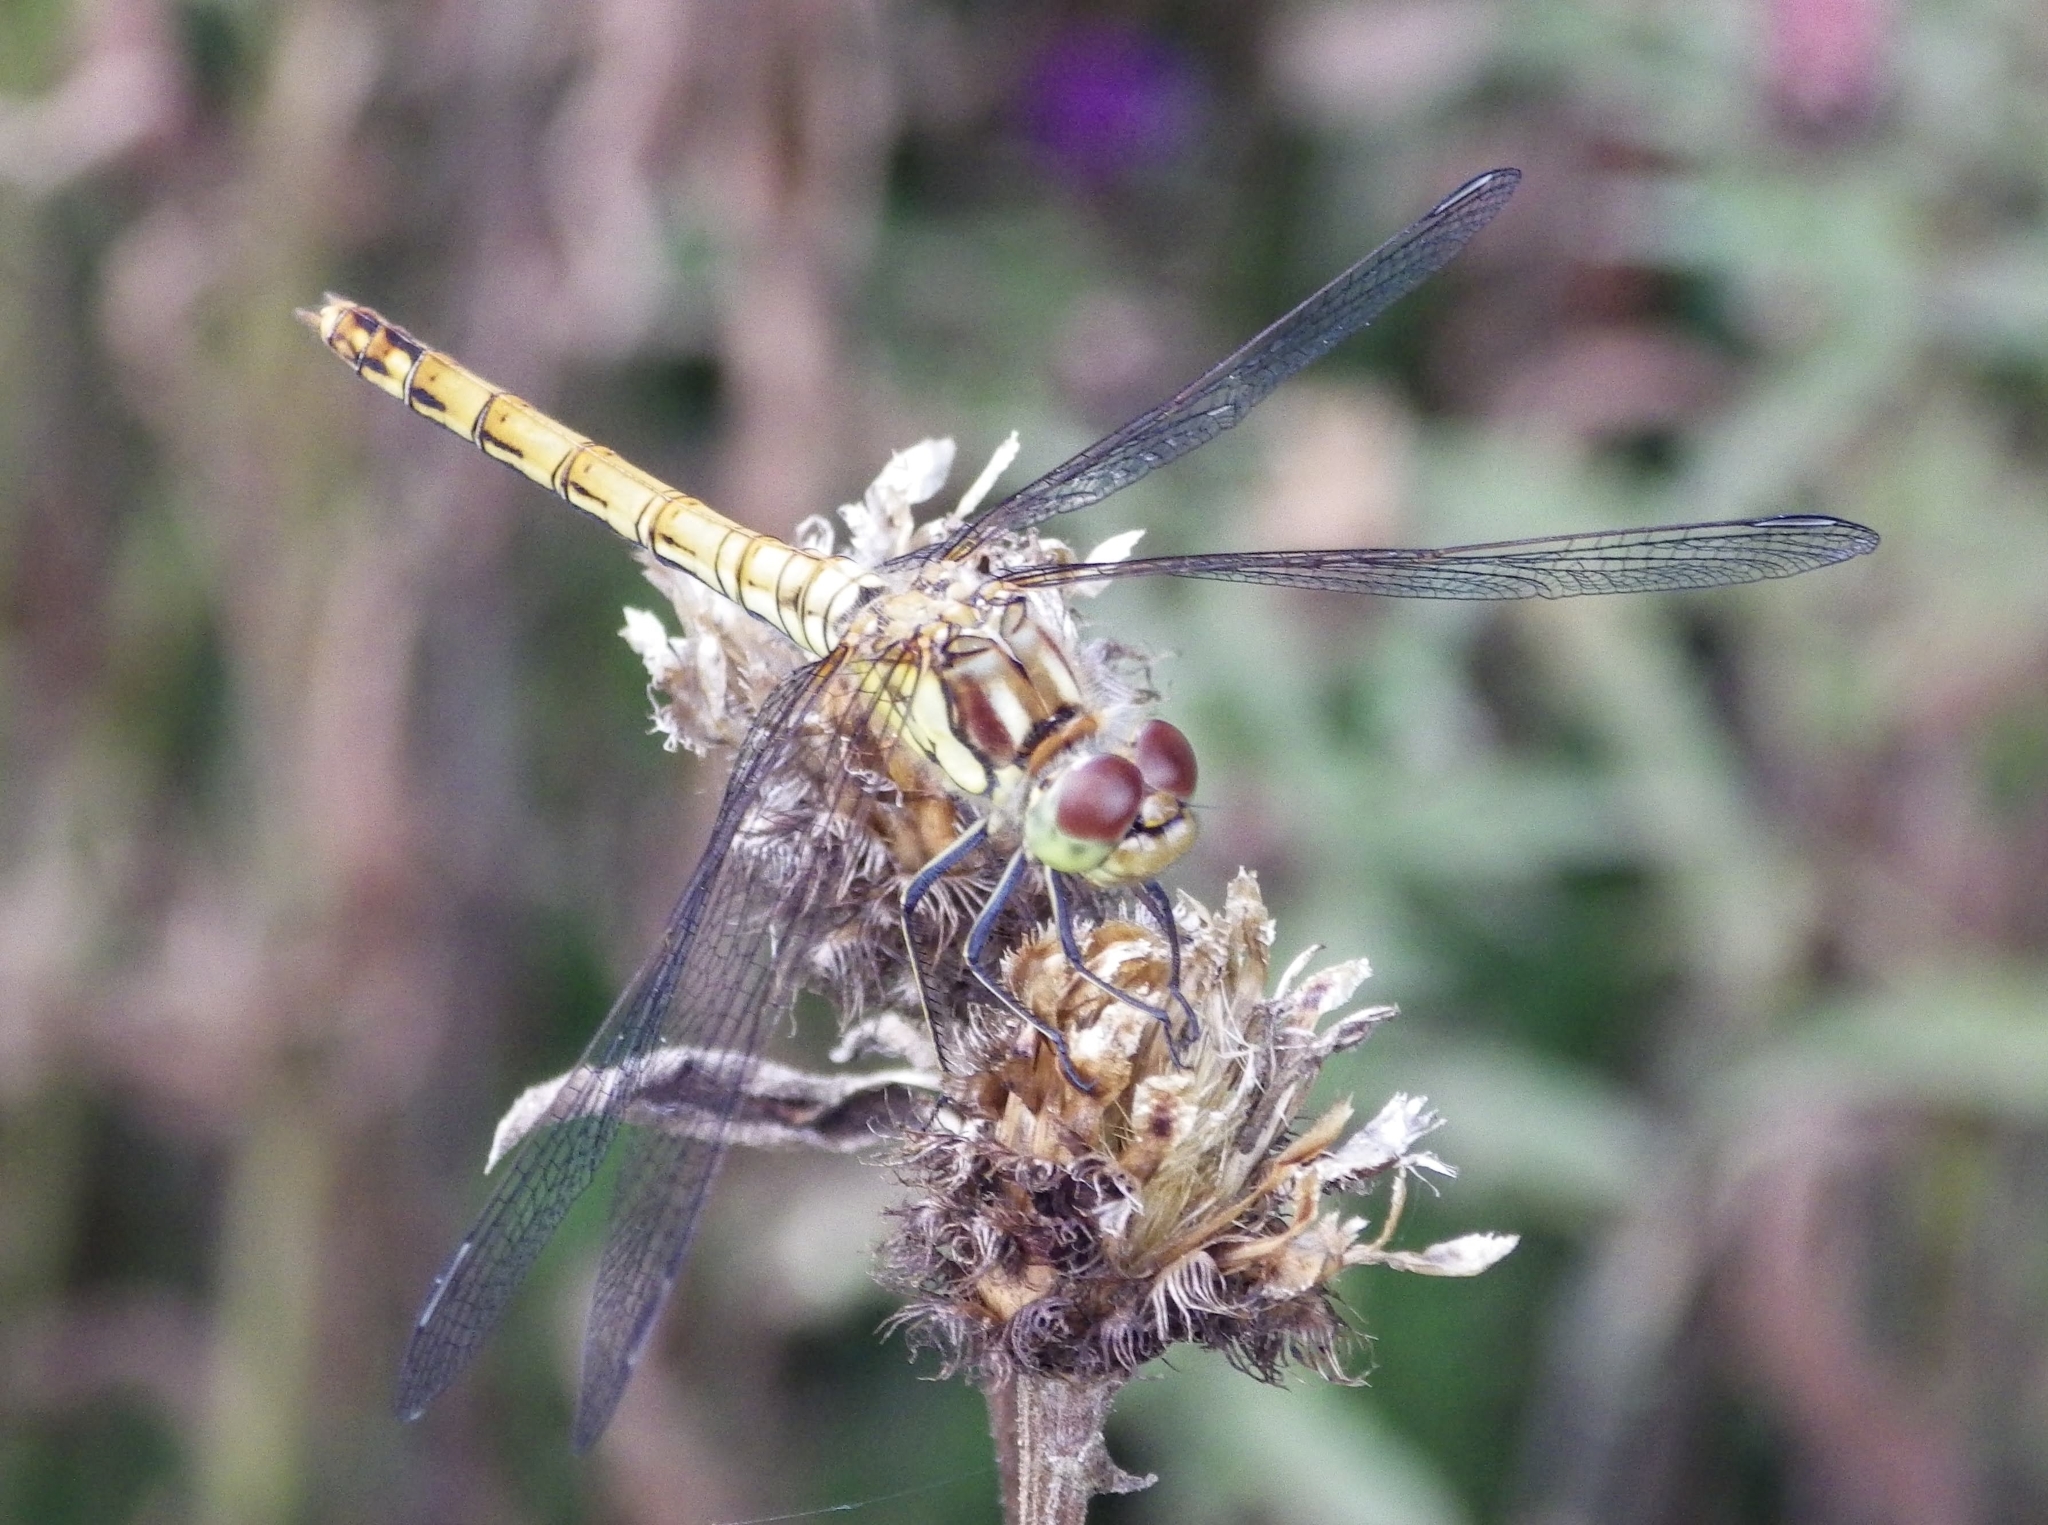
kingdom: Animalia
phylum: Arthropoda
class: Insecta
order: Odonata
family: Libellulidae
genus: Sympetrum
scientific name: Sympetrum striolatum
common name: Common darter
